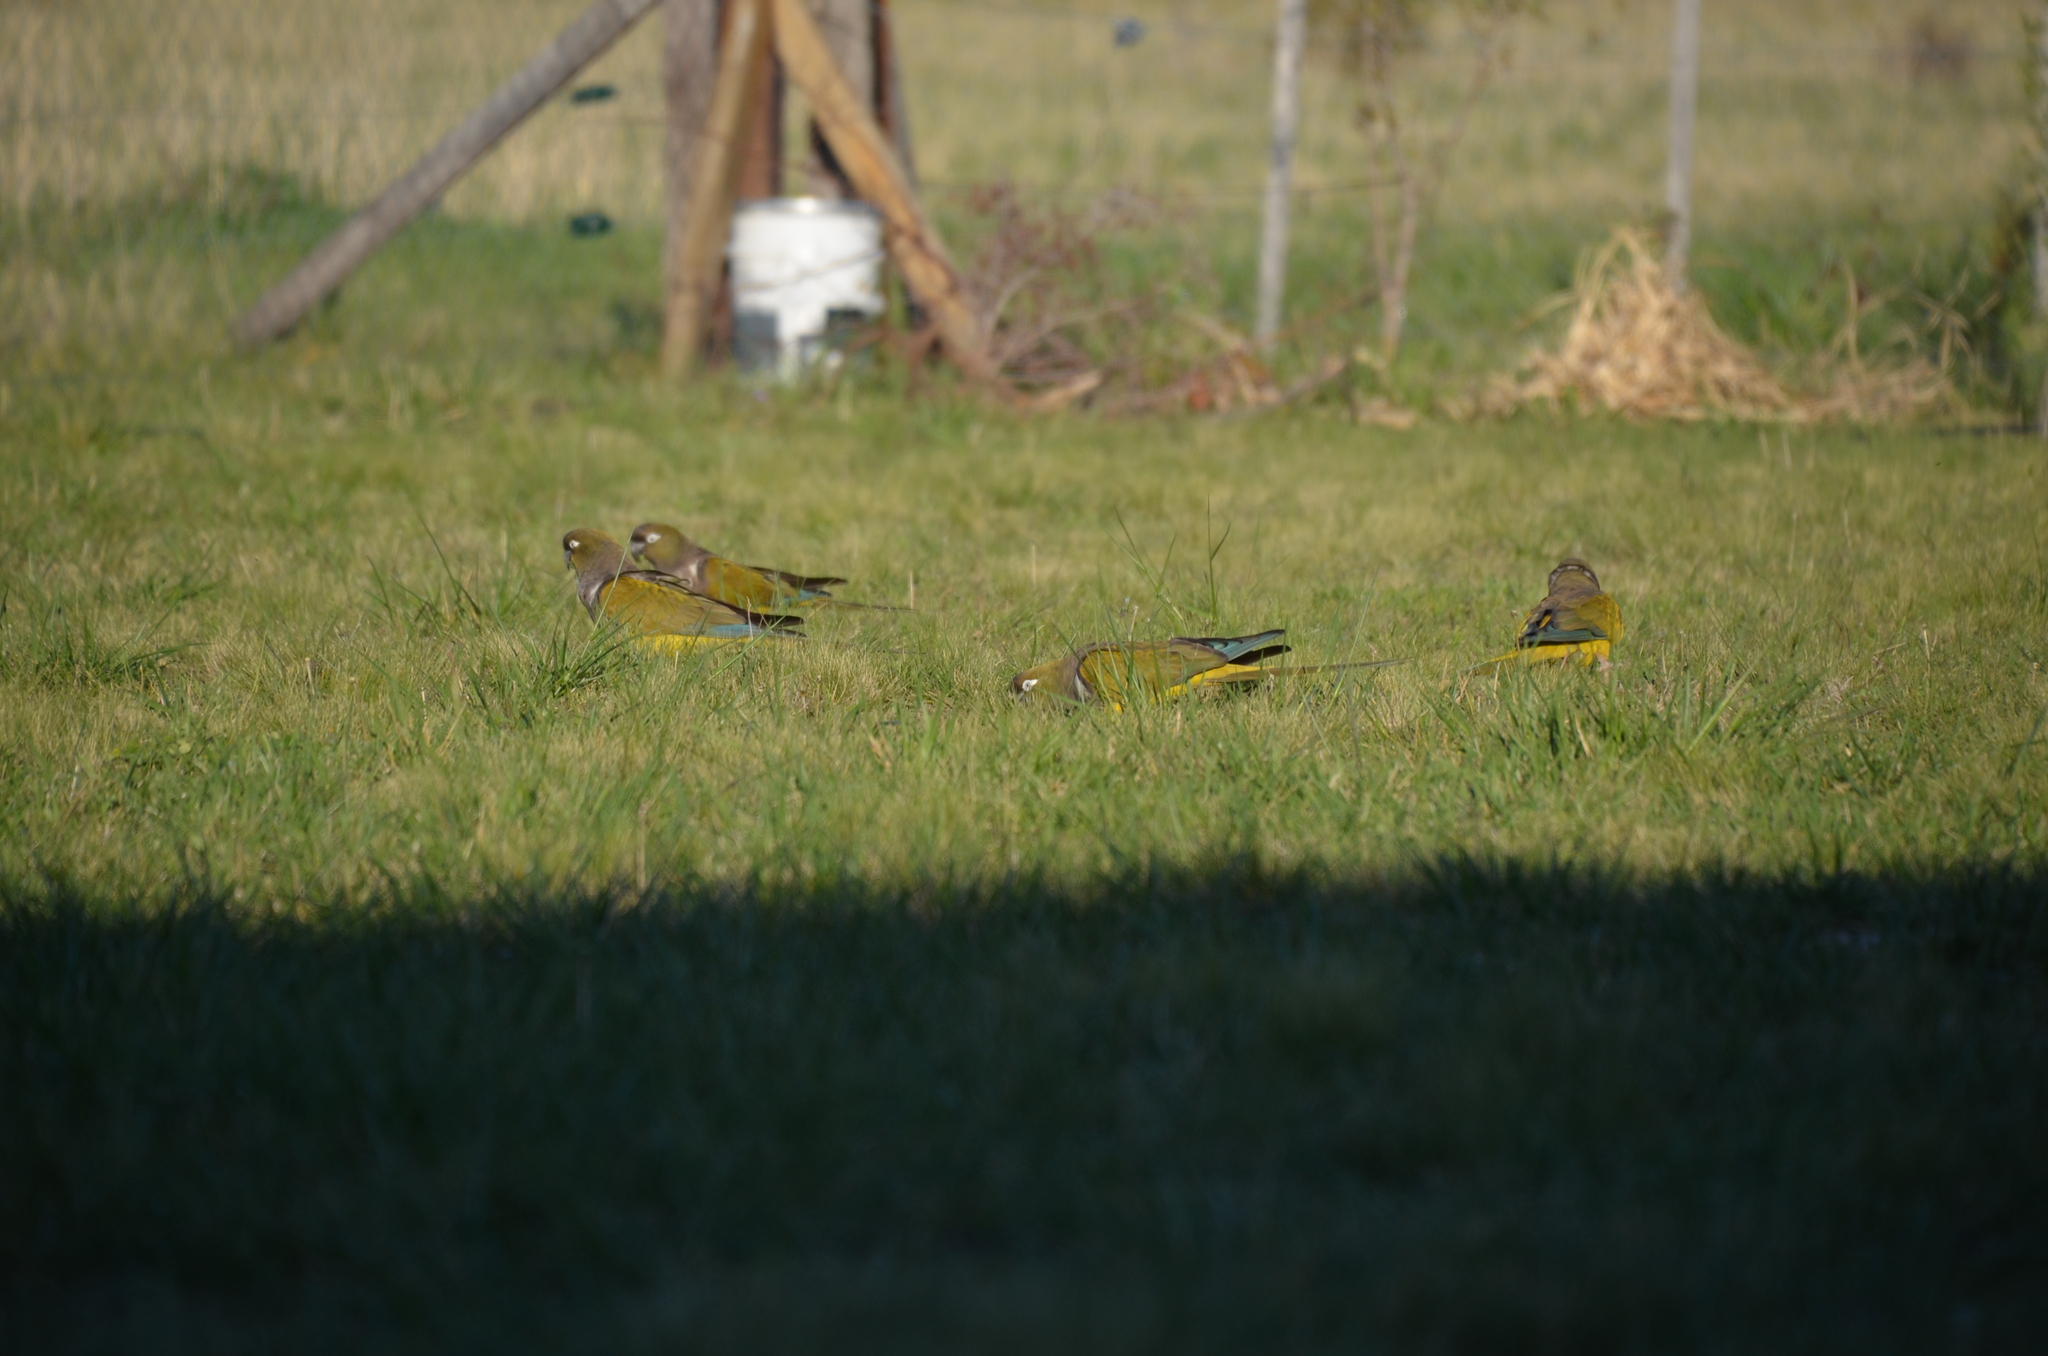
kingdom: Animalia
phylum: Chordata
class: Aves
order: Psittaciformes
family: Psittacidae
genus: Cyanoliseus
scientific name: Cyanoliseus patagonus
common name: Burrowing parrot
